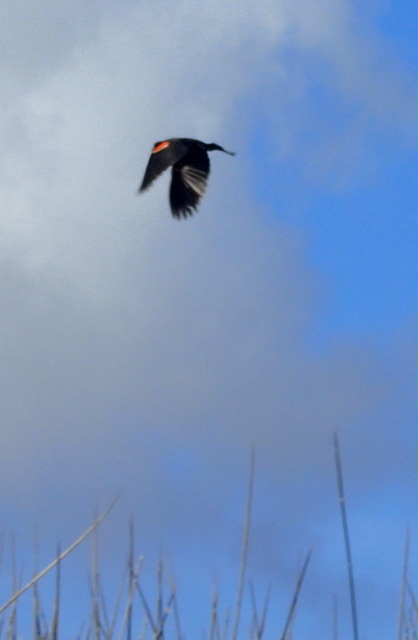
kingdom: Animalia
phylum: Chordata
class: Aves
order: Passeriformes
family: Icteridae
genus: Agelaius
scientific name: Agelaius phoeniceus
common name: Red-winged blackbird
